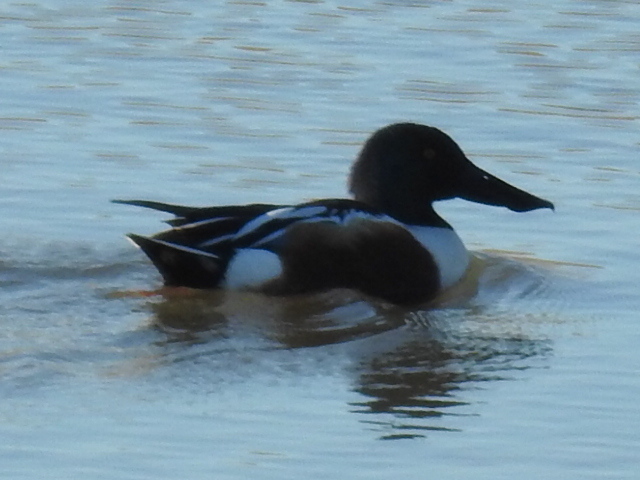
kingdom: Animalia
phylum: Chordata
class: Aves
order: Anseriformes
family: Anatidae
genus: Spatula
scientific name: Spatula clypeata
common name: Northern shoveler
